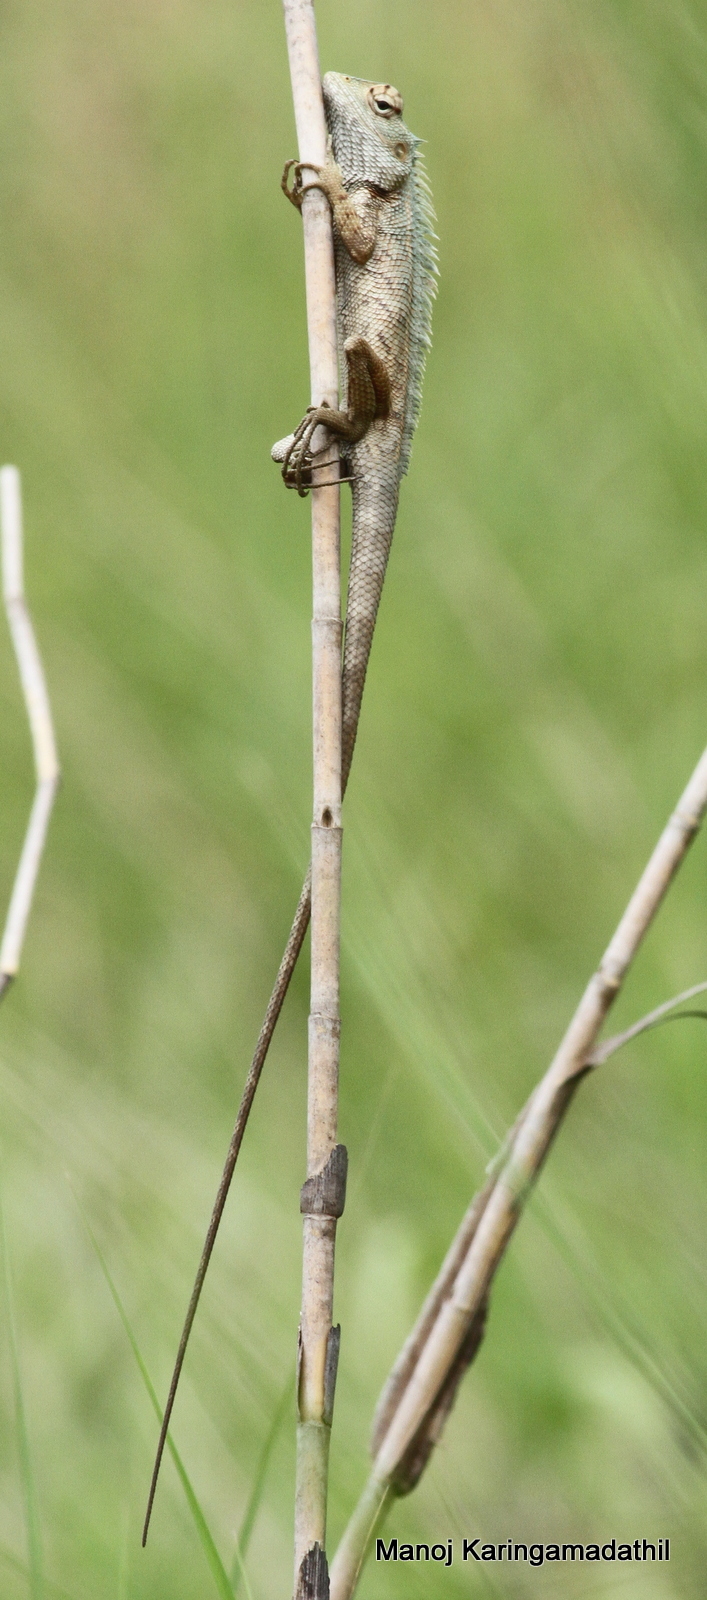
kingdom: Animalia
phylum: Chordata
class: Squamata
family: Agamidae
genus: Calotes
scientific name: Calotes versicolor
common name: Oriental garden lizard
